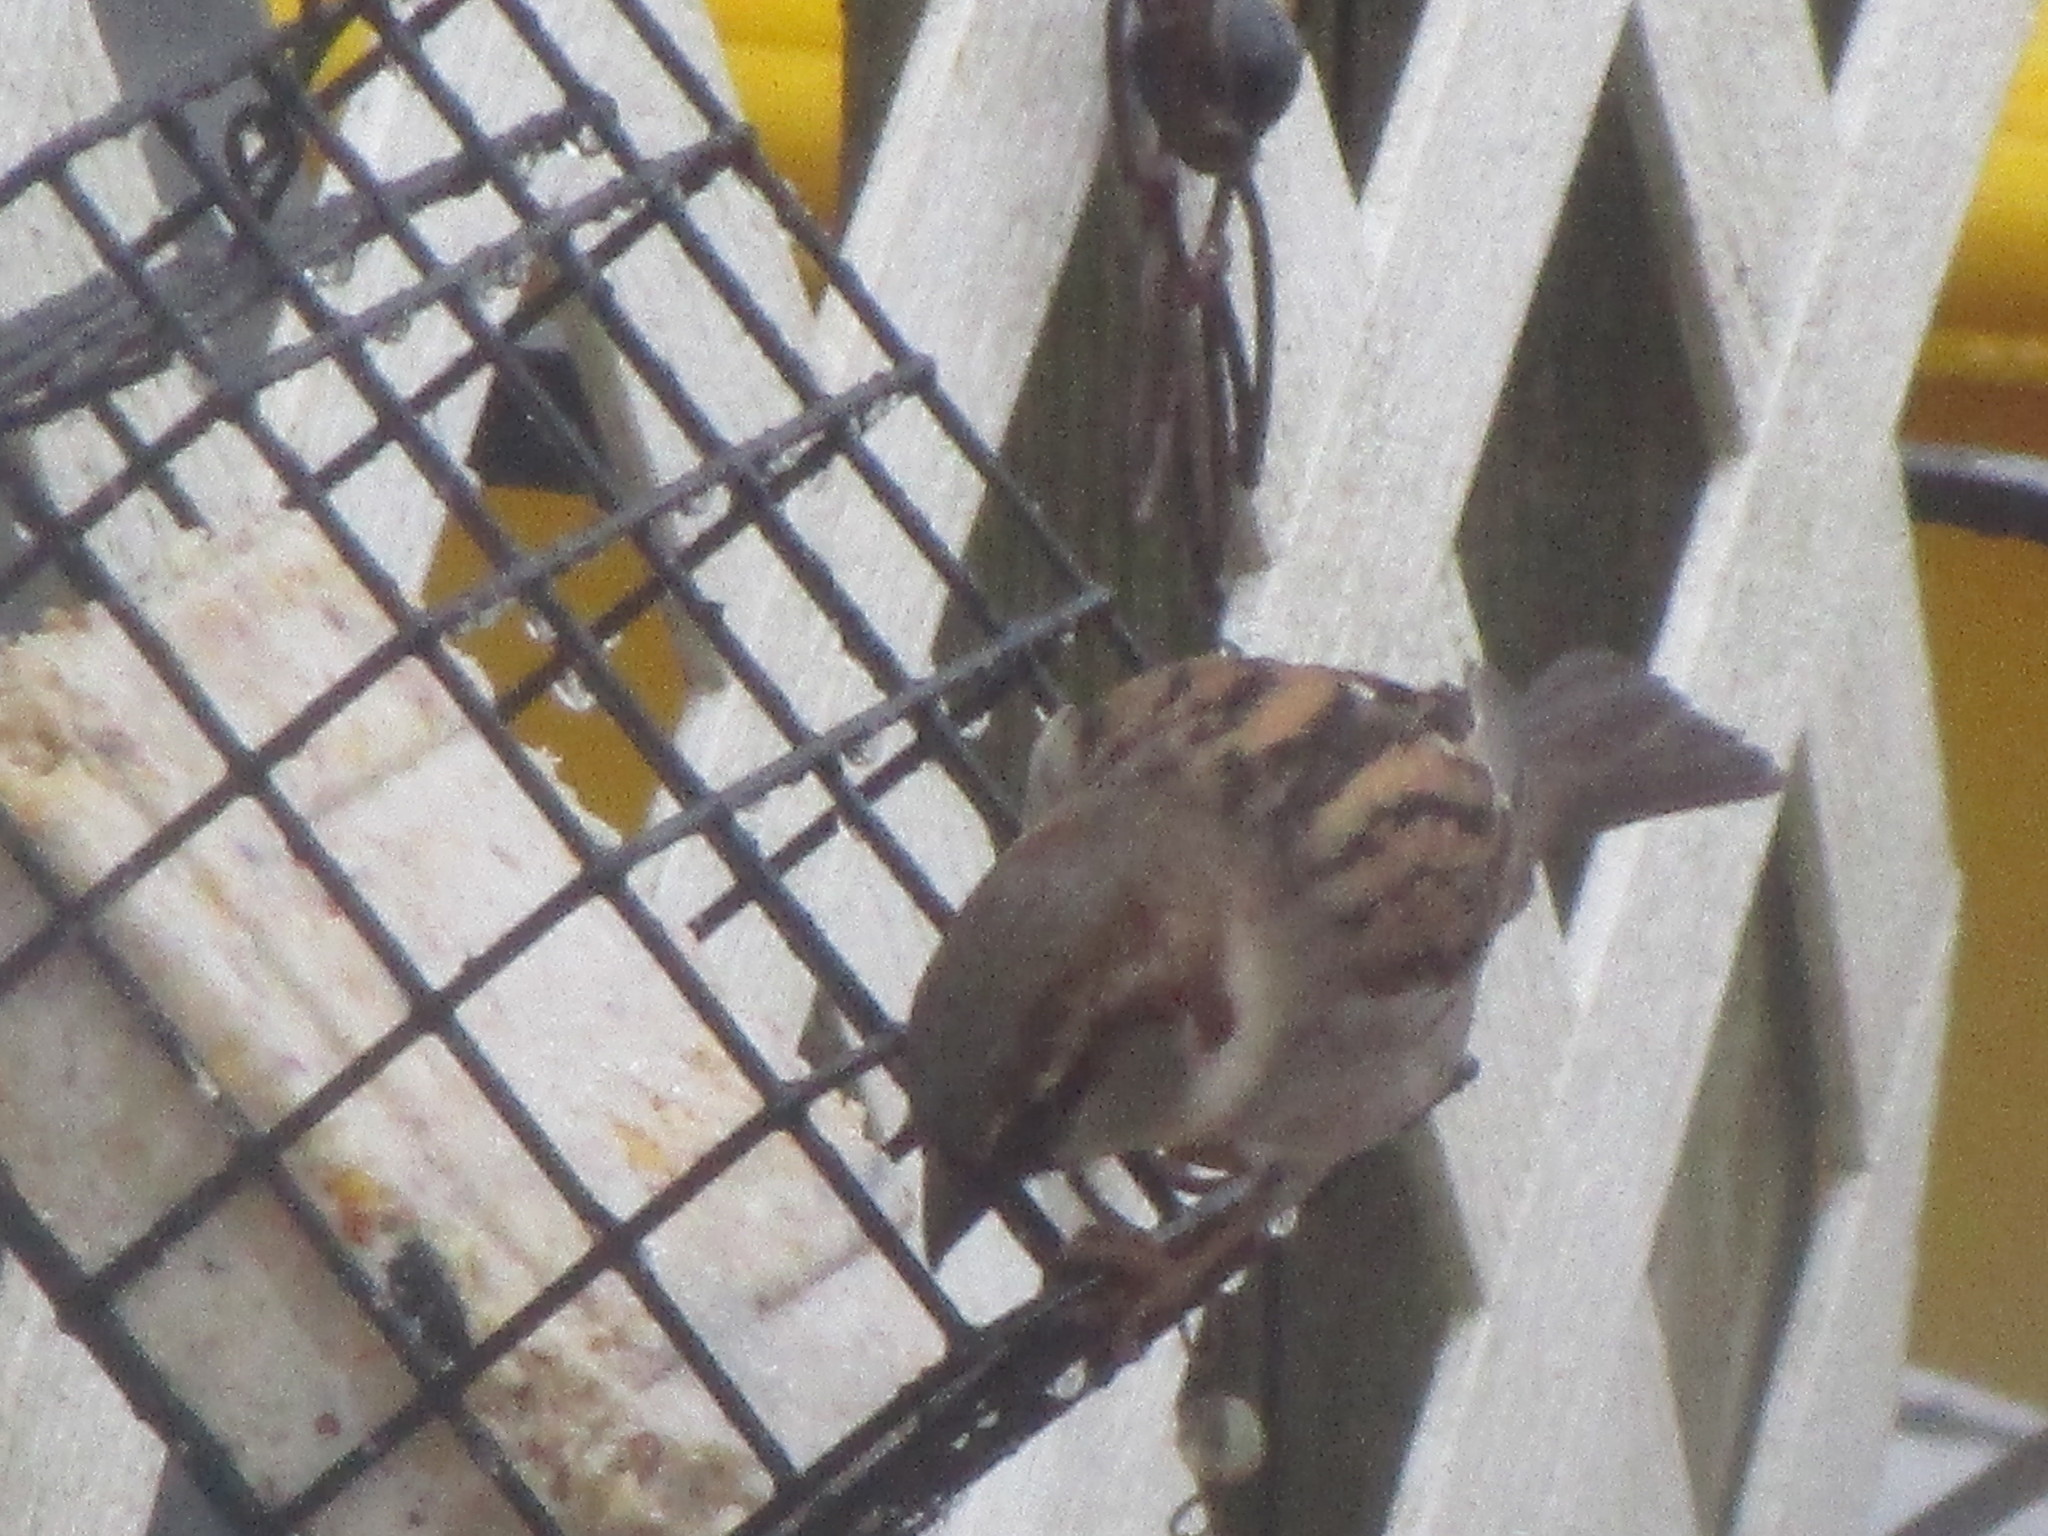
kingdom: Animalia
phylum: Chordata
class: Aves
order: Passeriformes
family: Passeridae
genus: Passer
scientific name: Passer domesticus
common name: House sparrow
